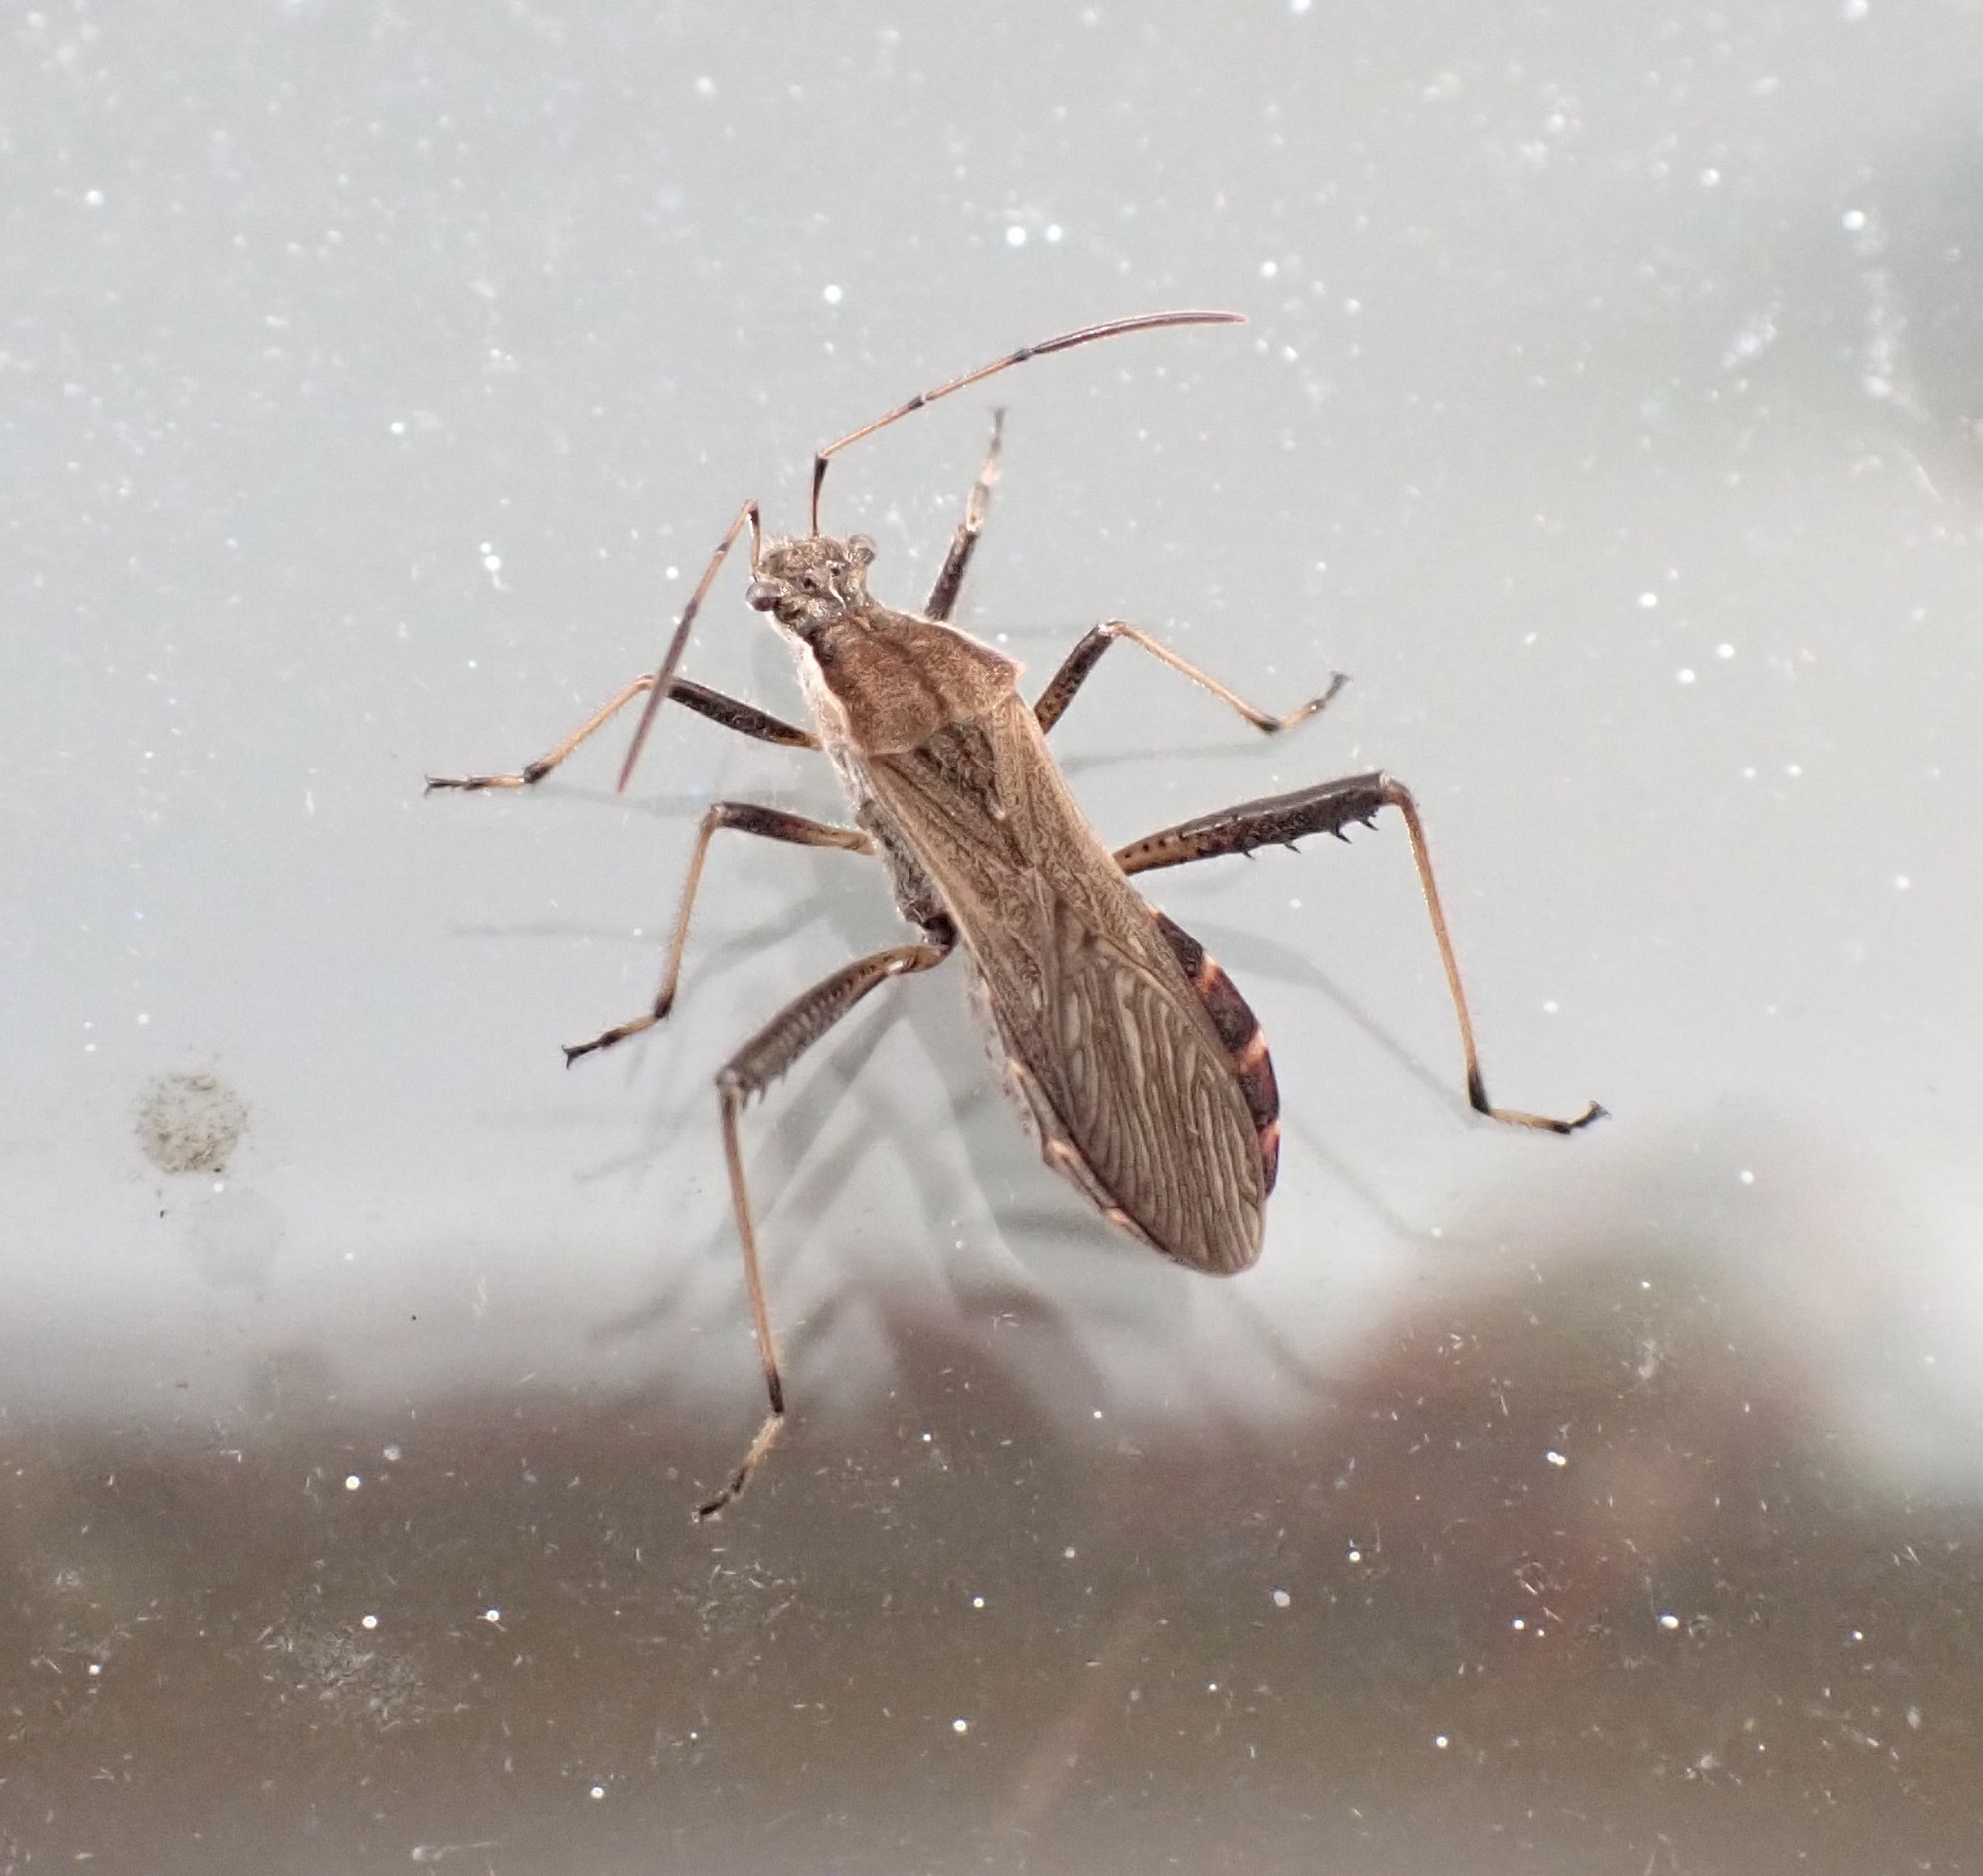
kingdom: Animalia
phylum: Arthropoda
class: Insecta
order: Hemiptera
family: Alydidae
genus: Alydus
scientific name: Alydus pilosulus
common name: Broad-headed bug
